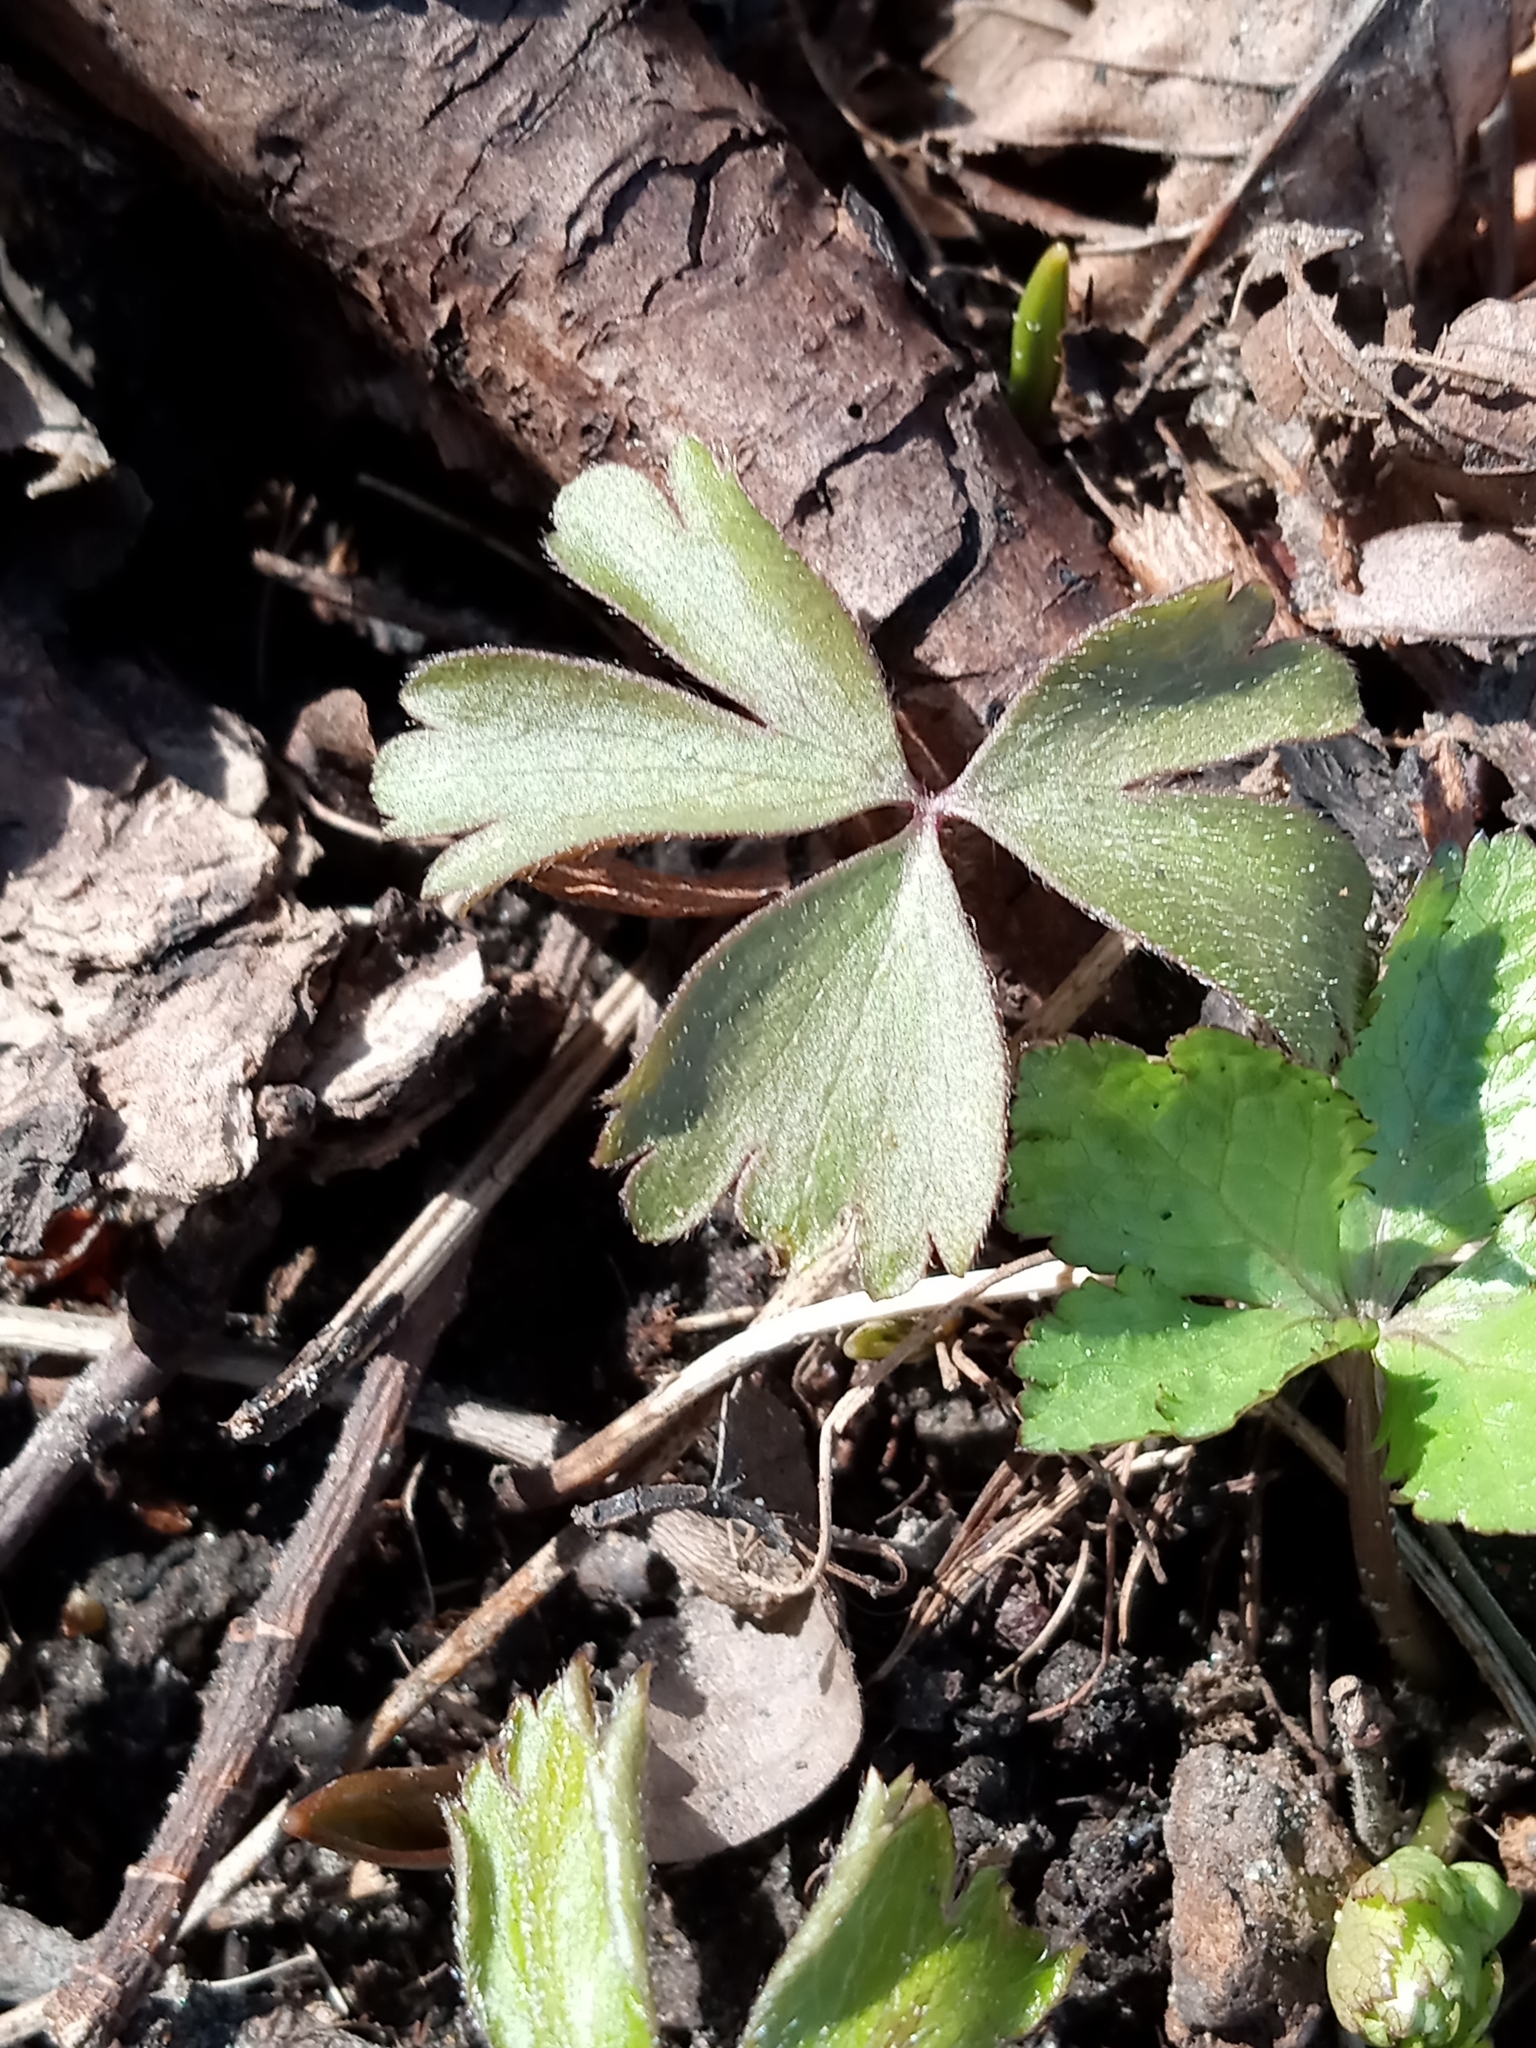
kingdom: Plantae
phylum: Tracheophyta
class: Magnoliopsida
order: Ranunculales
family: Ranunculaceae
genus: Anemone
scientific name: Anemone quinquefolia
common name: Wood anemone
